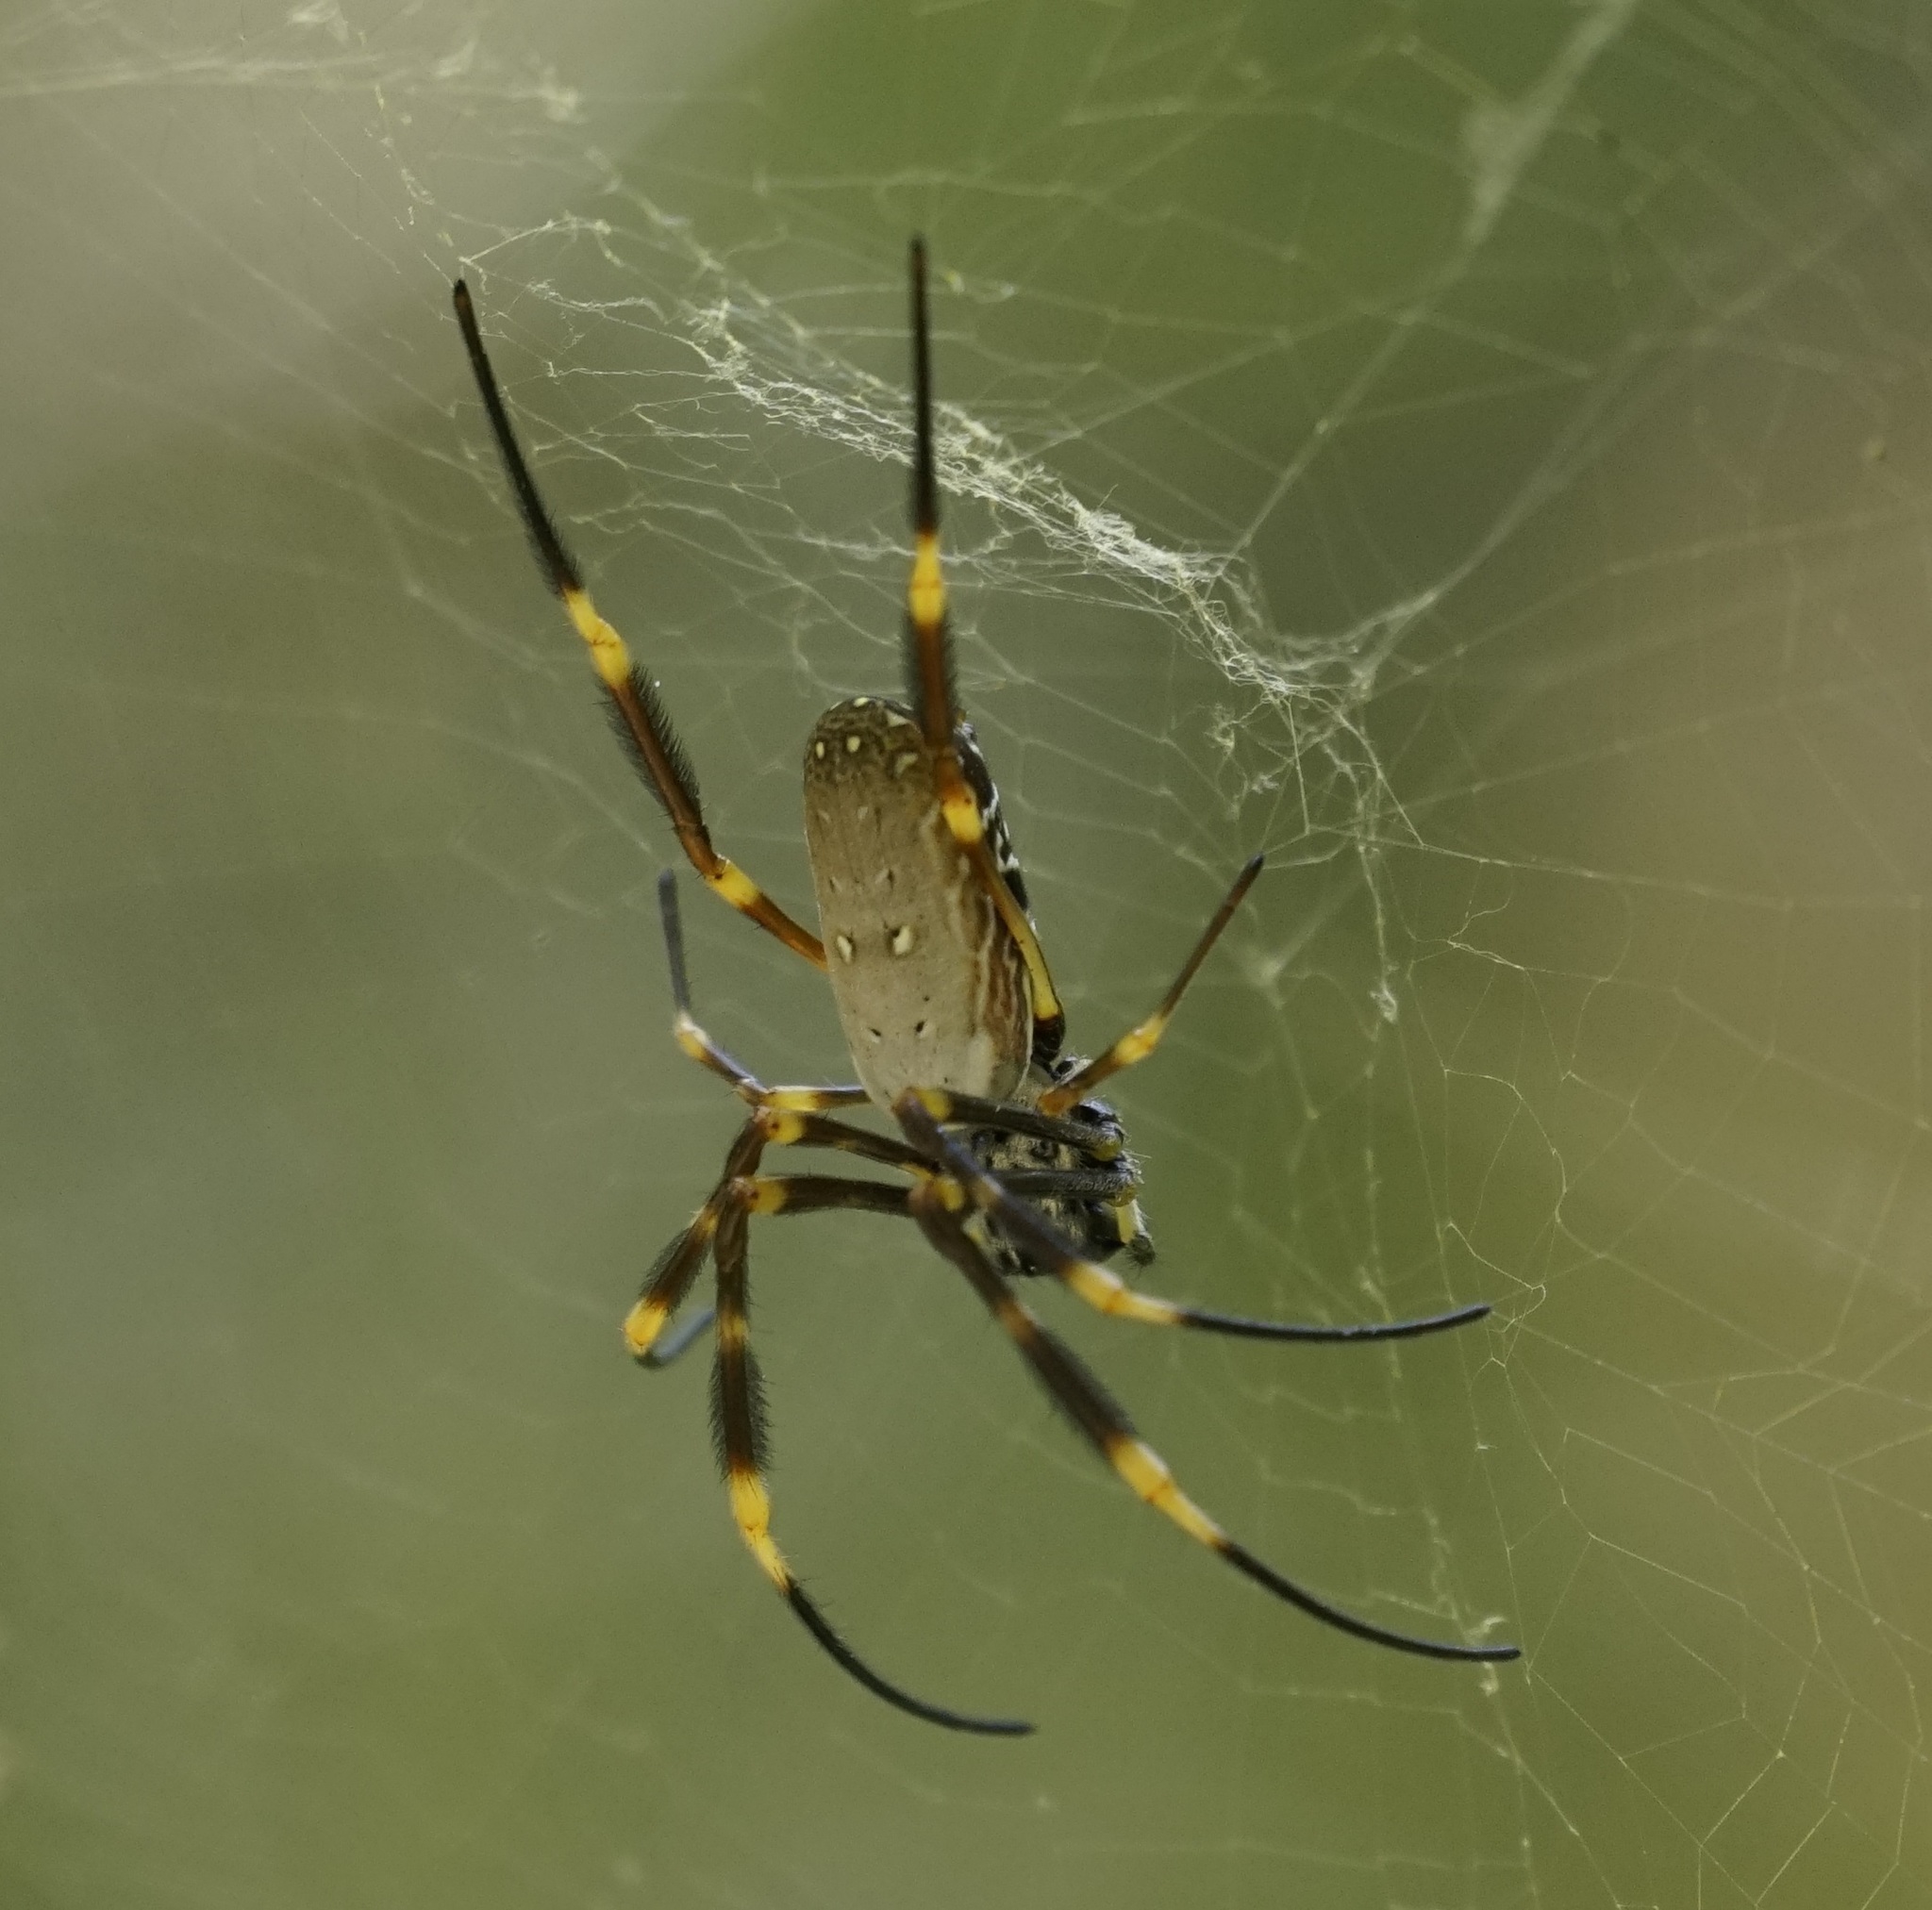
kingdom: Animalia
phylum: Arthropoda
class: Arachnida
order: Araneae
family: Araneidae
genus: Trichonephila
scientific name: Trichonephila plumipes
